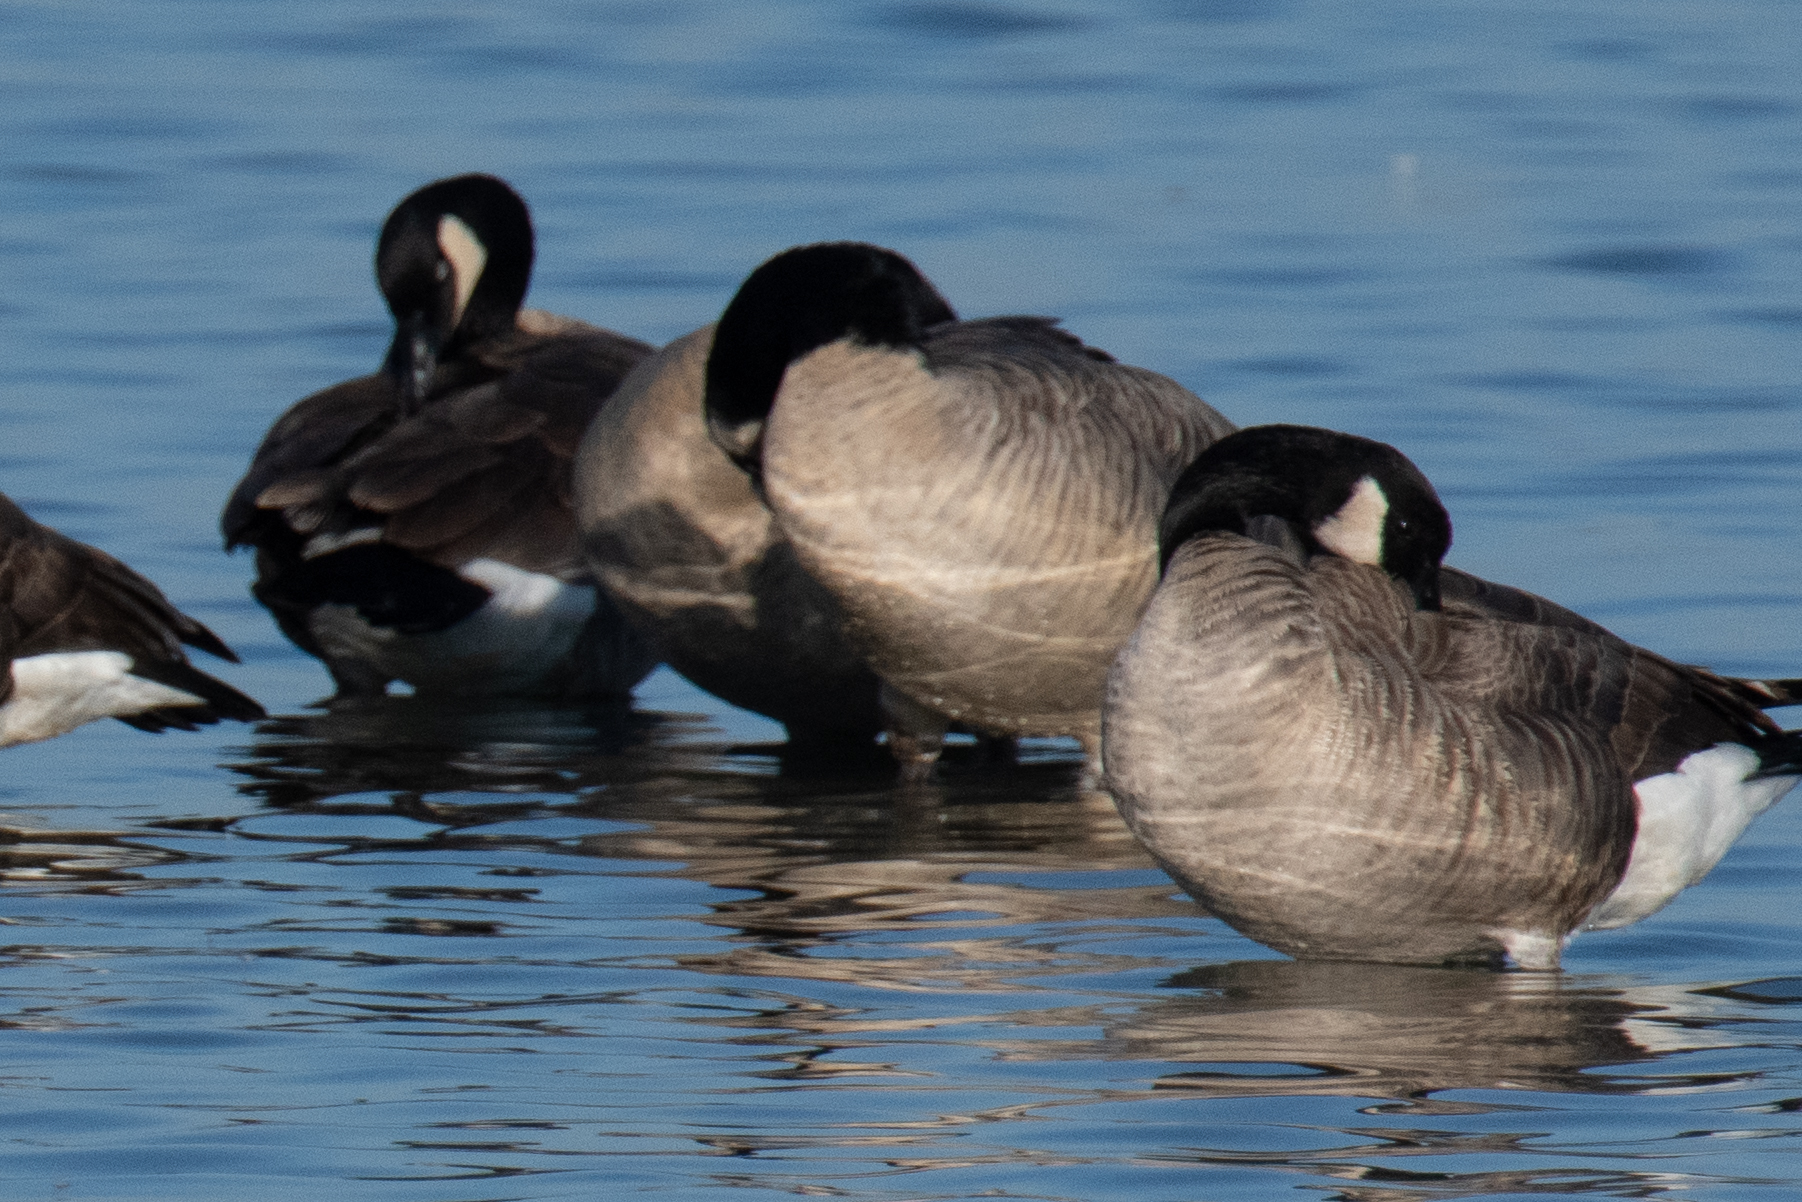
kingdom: Animalia
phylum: Chordata
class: Aves
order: Anseriformes
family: Anatidae
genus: Branta
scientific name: Branta canadensis
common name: Canada goose
